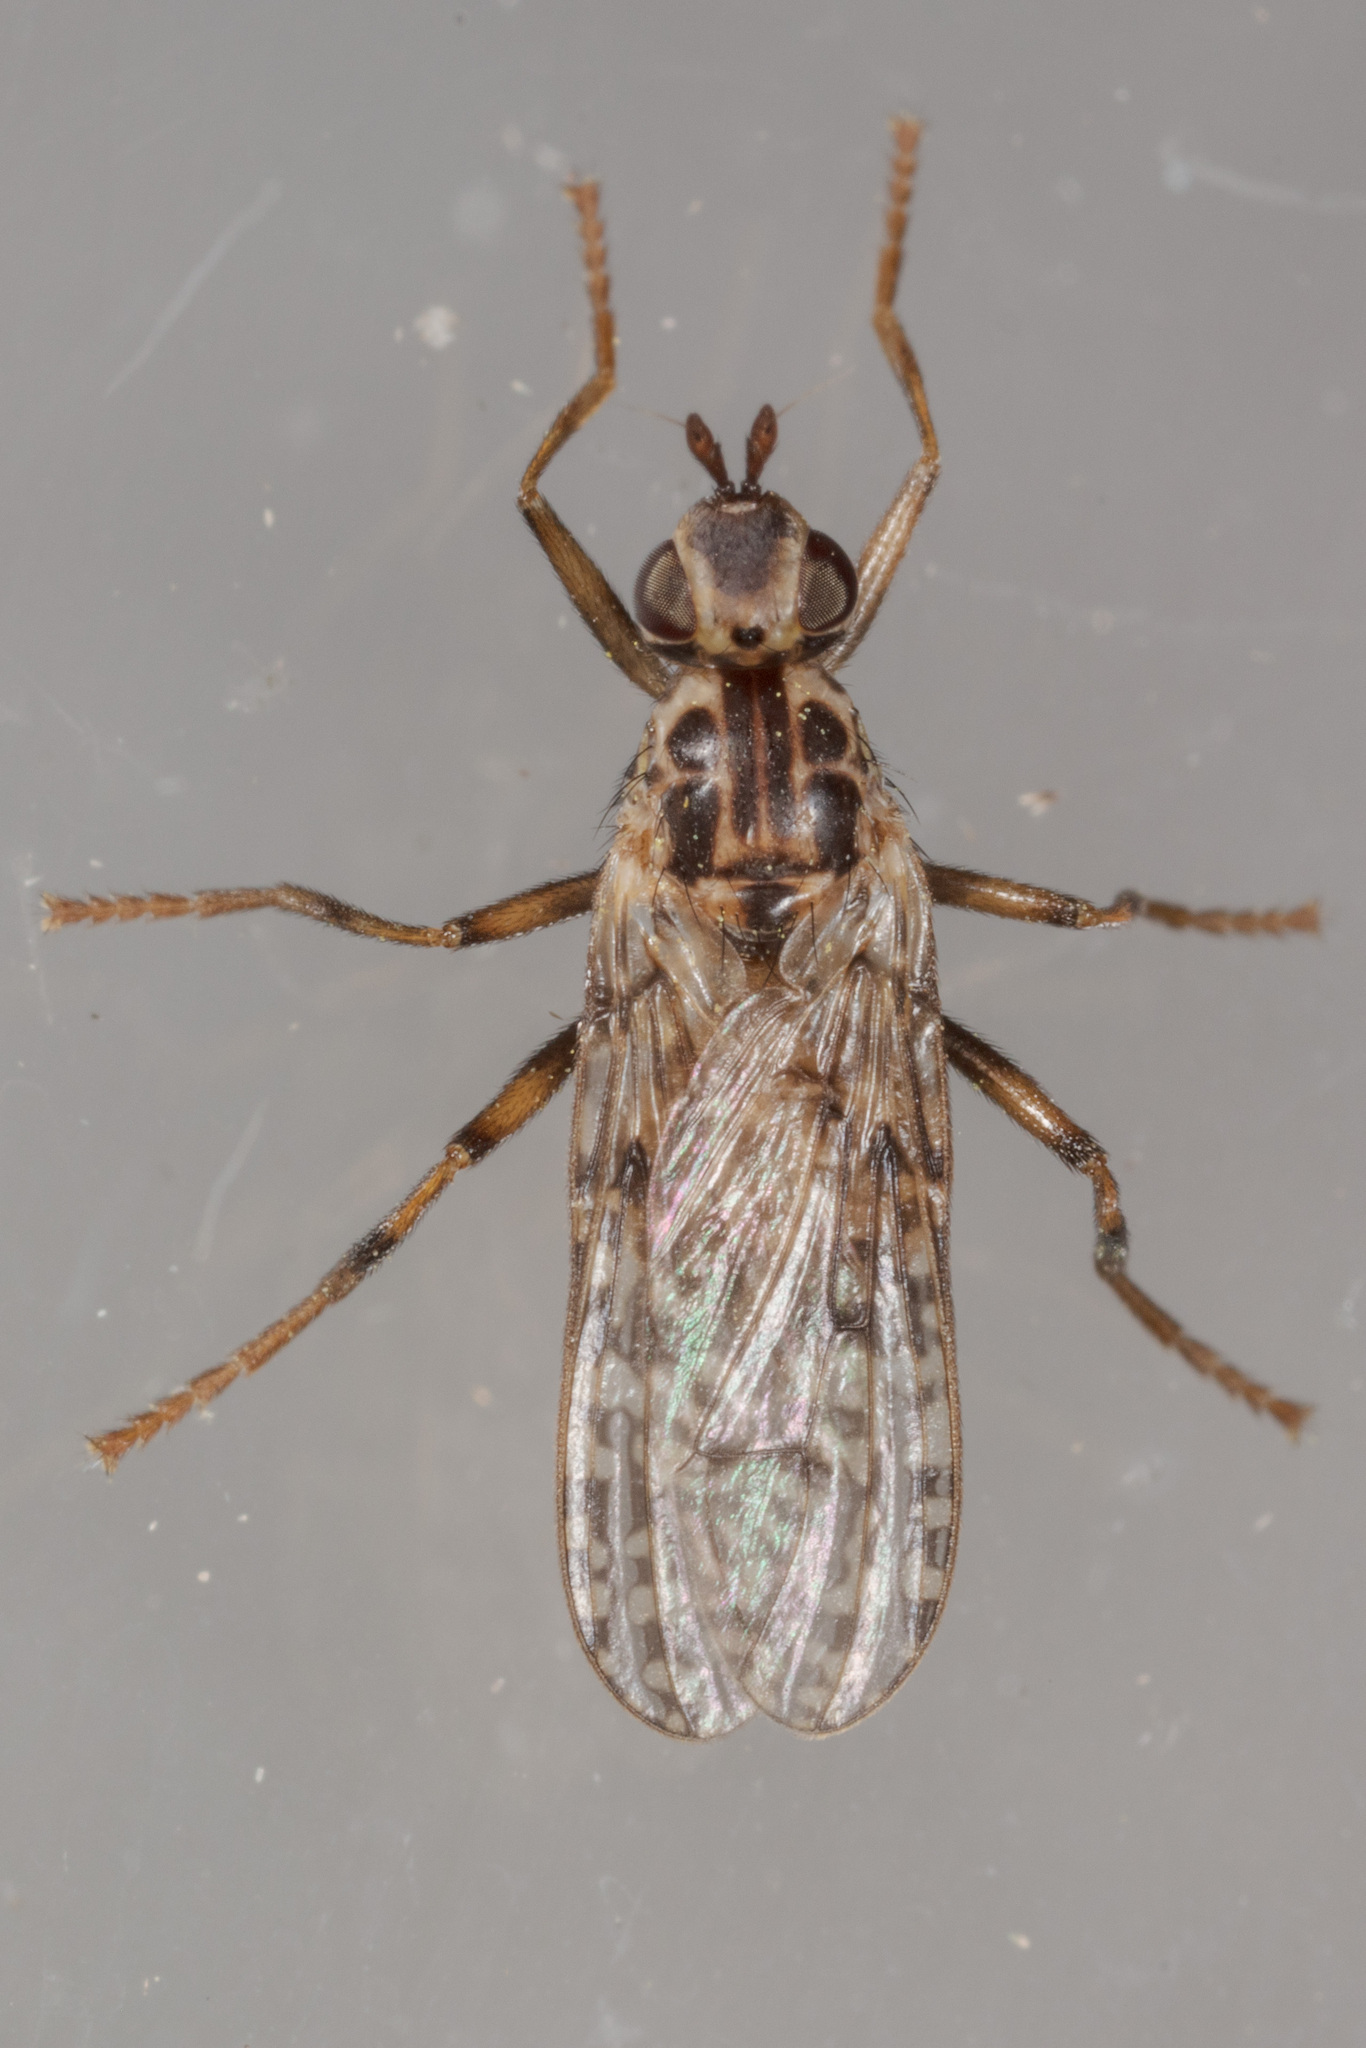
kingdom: Animalia
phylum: Arthropoda
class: Insecta
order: Diptera
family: Pyrgotidae
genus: Boreothrinax
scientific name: Boreothrinax
